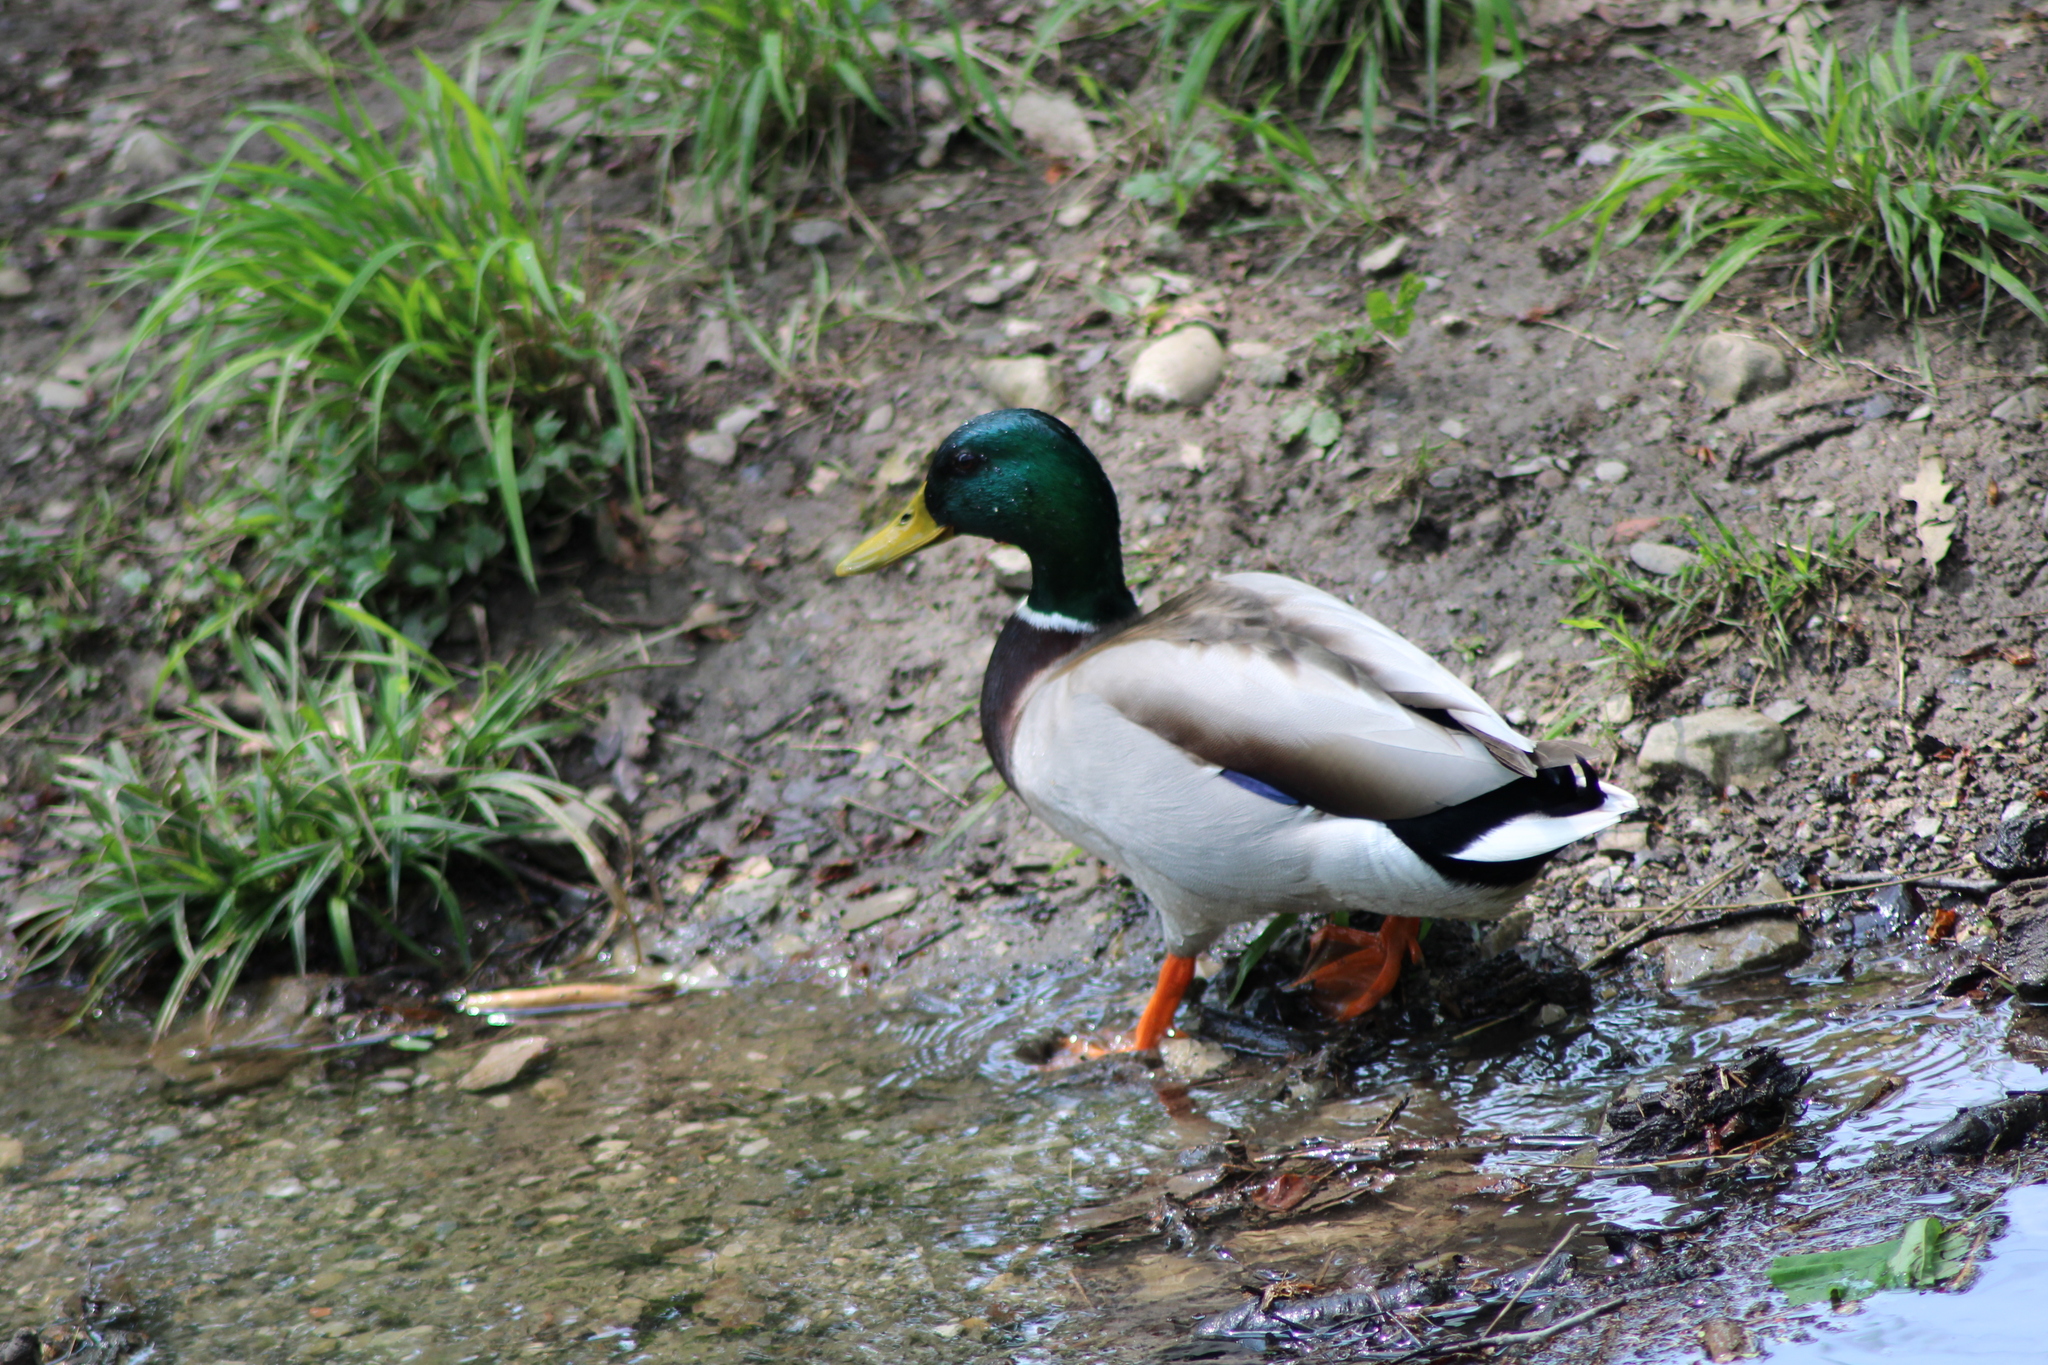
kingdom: Animalia
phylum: Chordata
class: Aves
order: Anseriformes
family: Anatidae
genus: Anas
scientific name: Anas platyrhynchos
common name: Mallard
